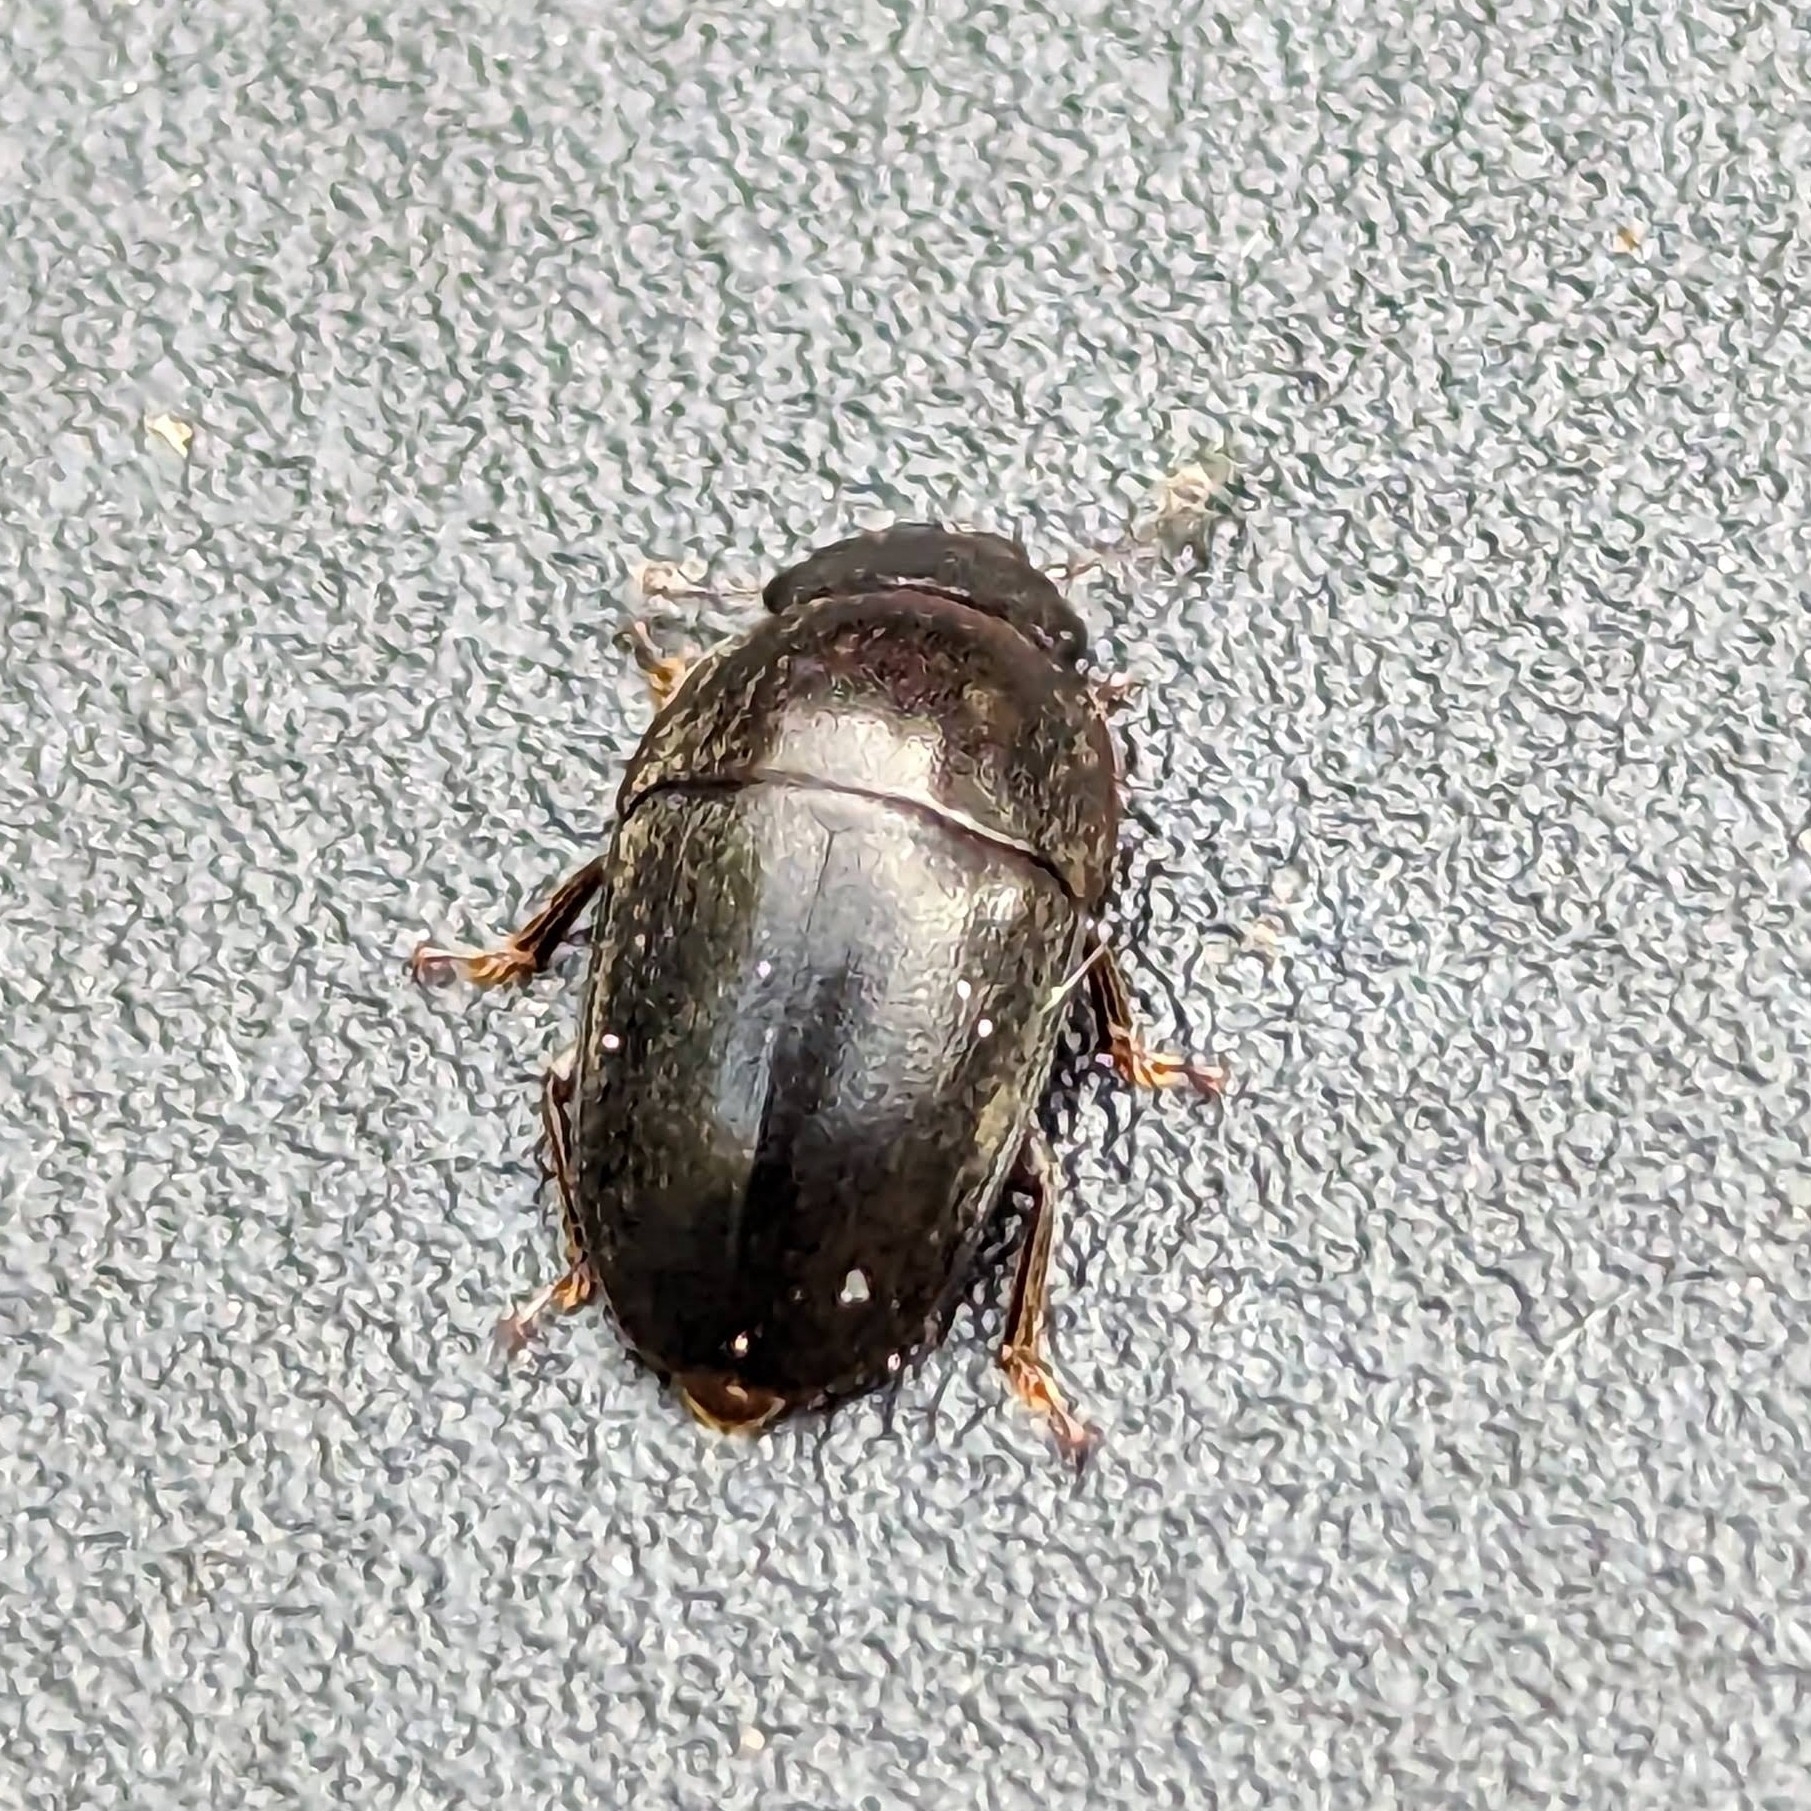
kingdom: Animalia
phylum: Arthropoda
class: Insecta
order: Coleoptera
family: Nitidulidae
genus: Cryptarcha
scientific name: Cryptarcha ampla
